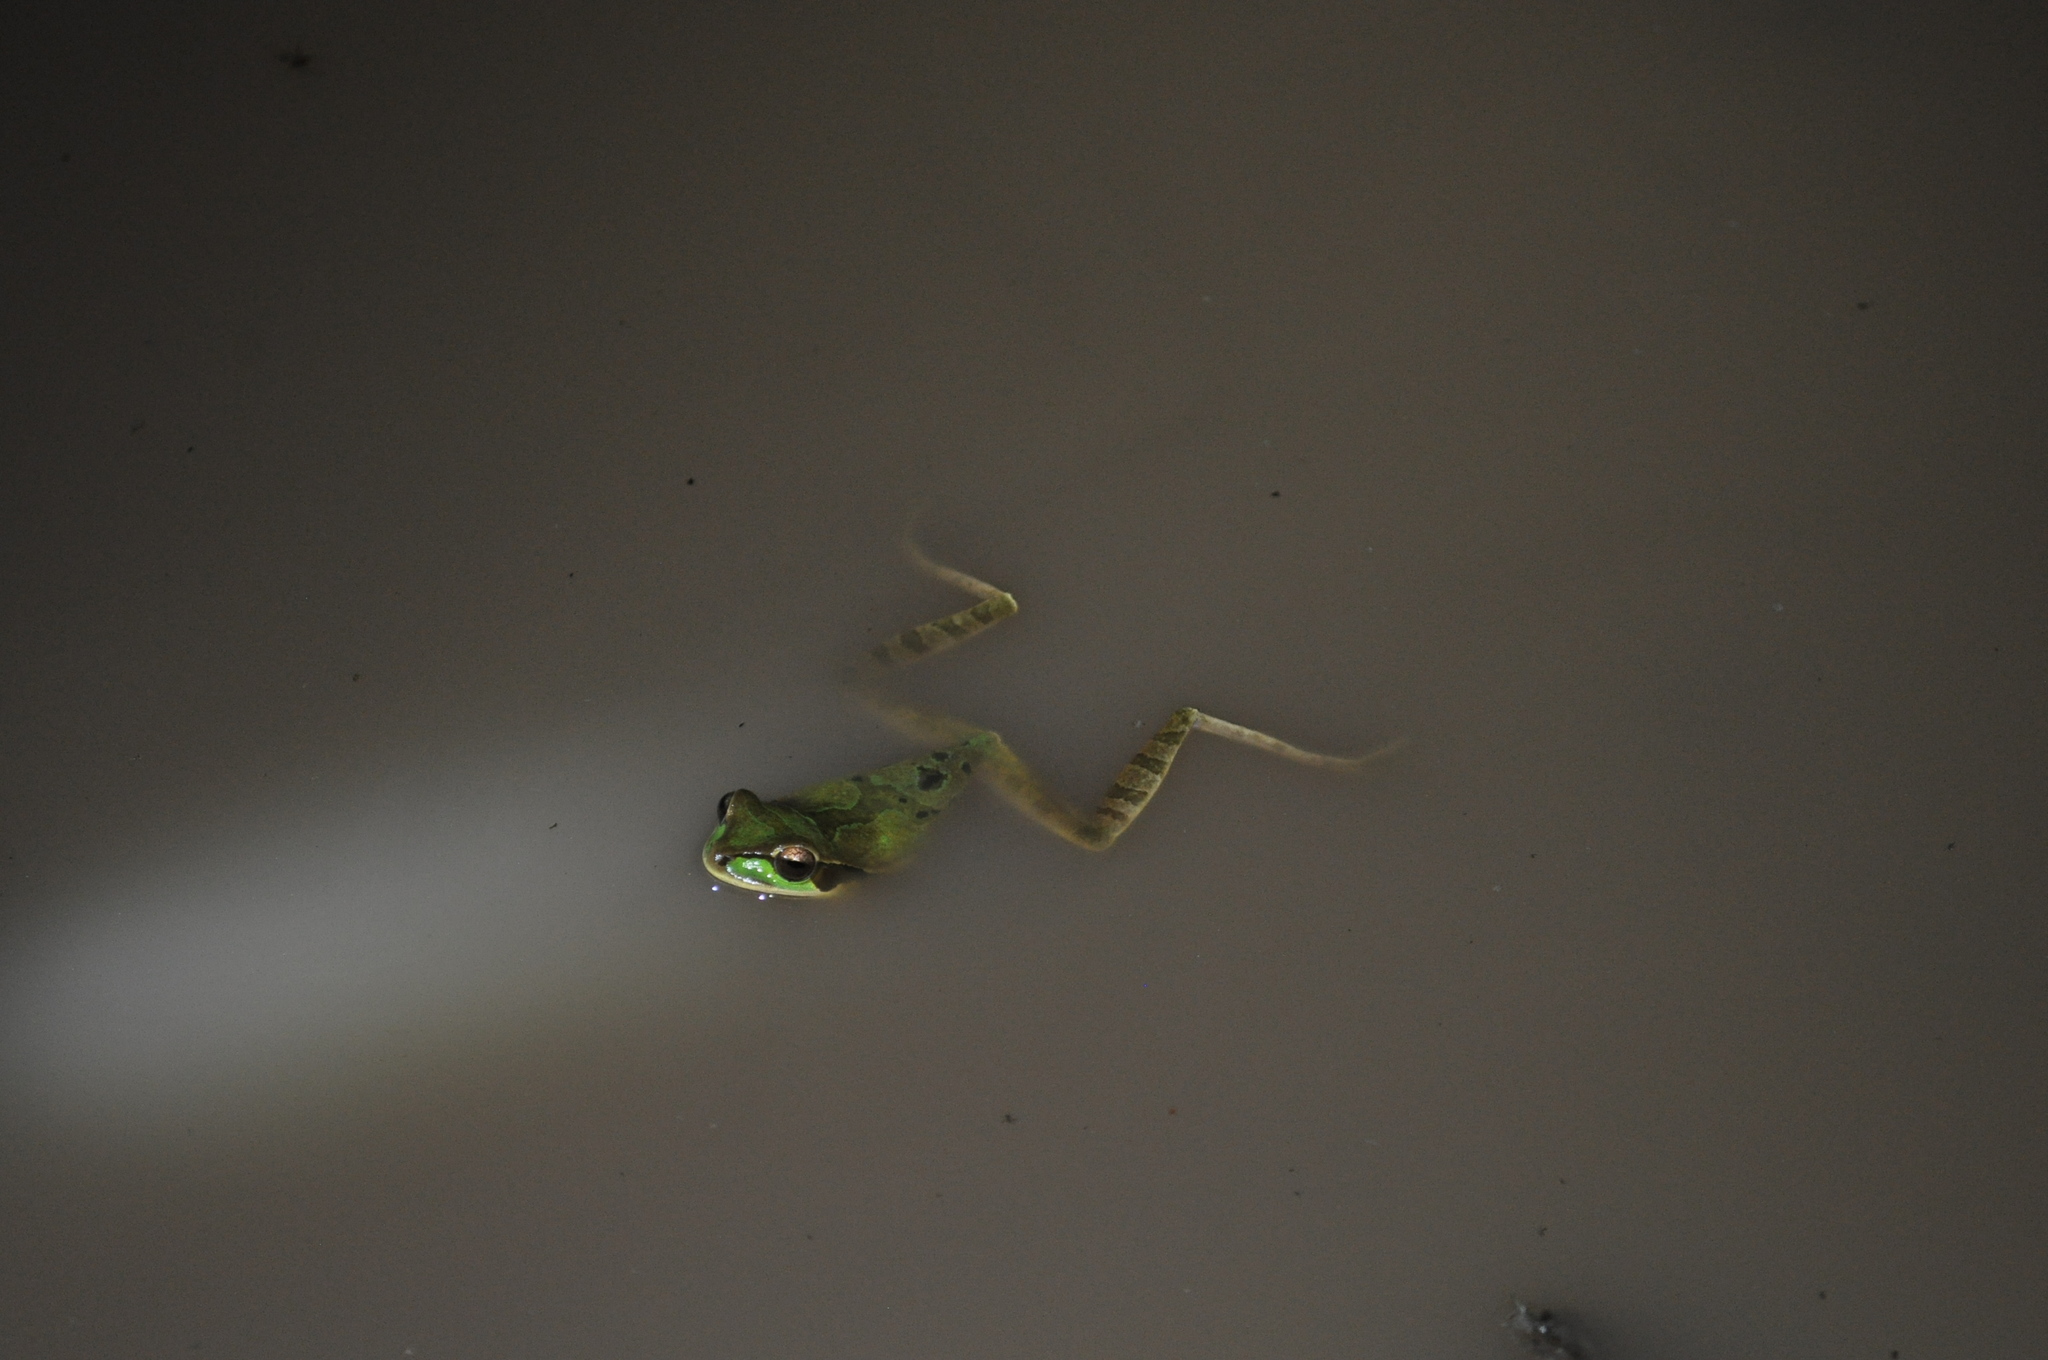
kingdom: Animalia
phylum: Chordata
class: Amphibia
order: Anura
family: Hylidae
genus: Smilisca
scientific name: Smilisca phaeota
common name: Central american smilisca
